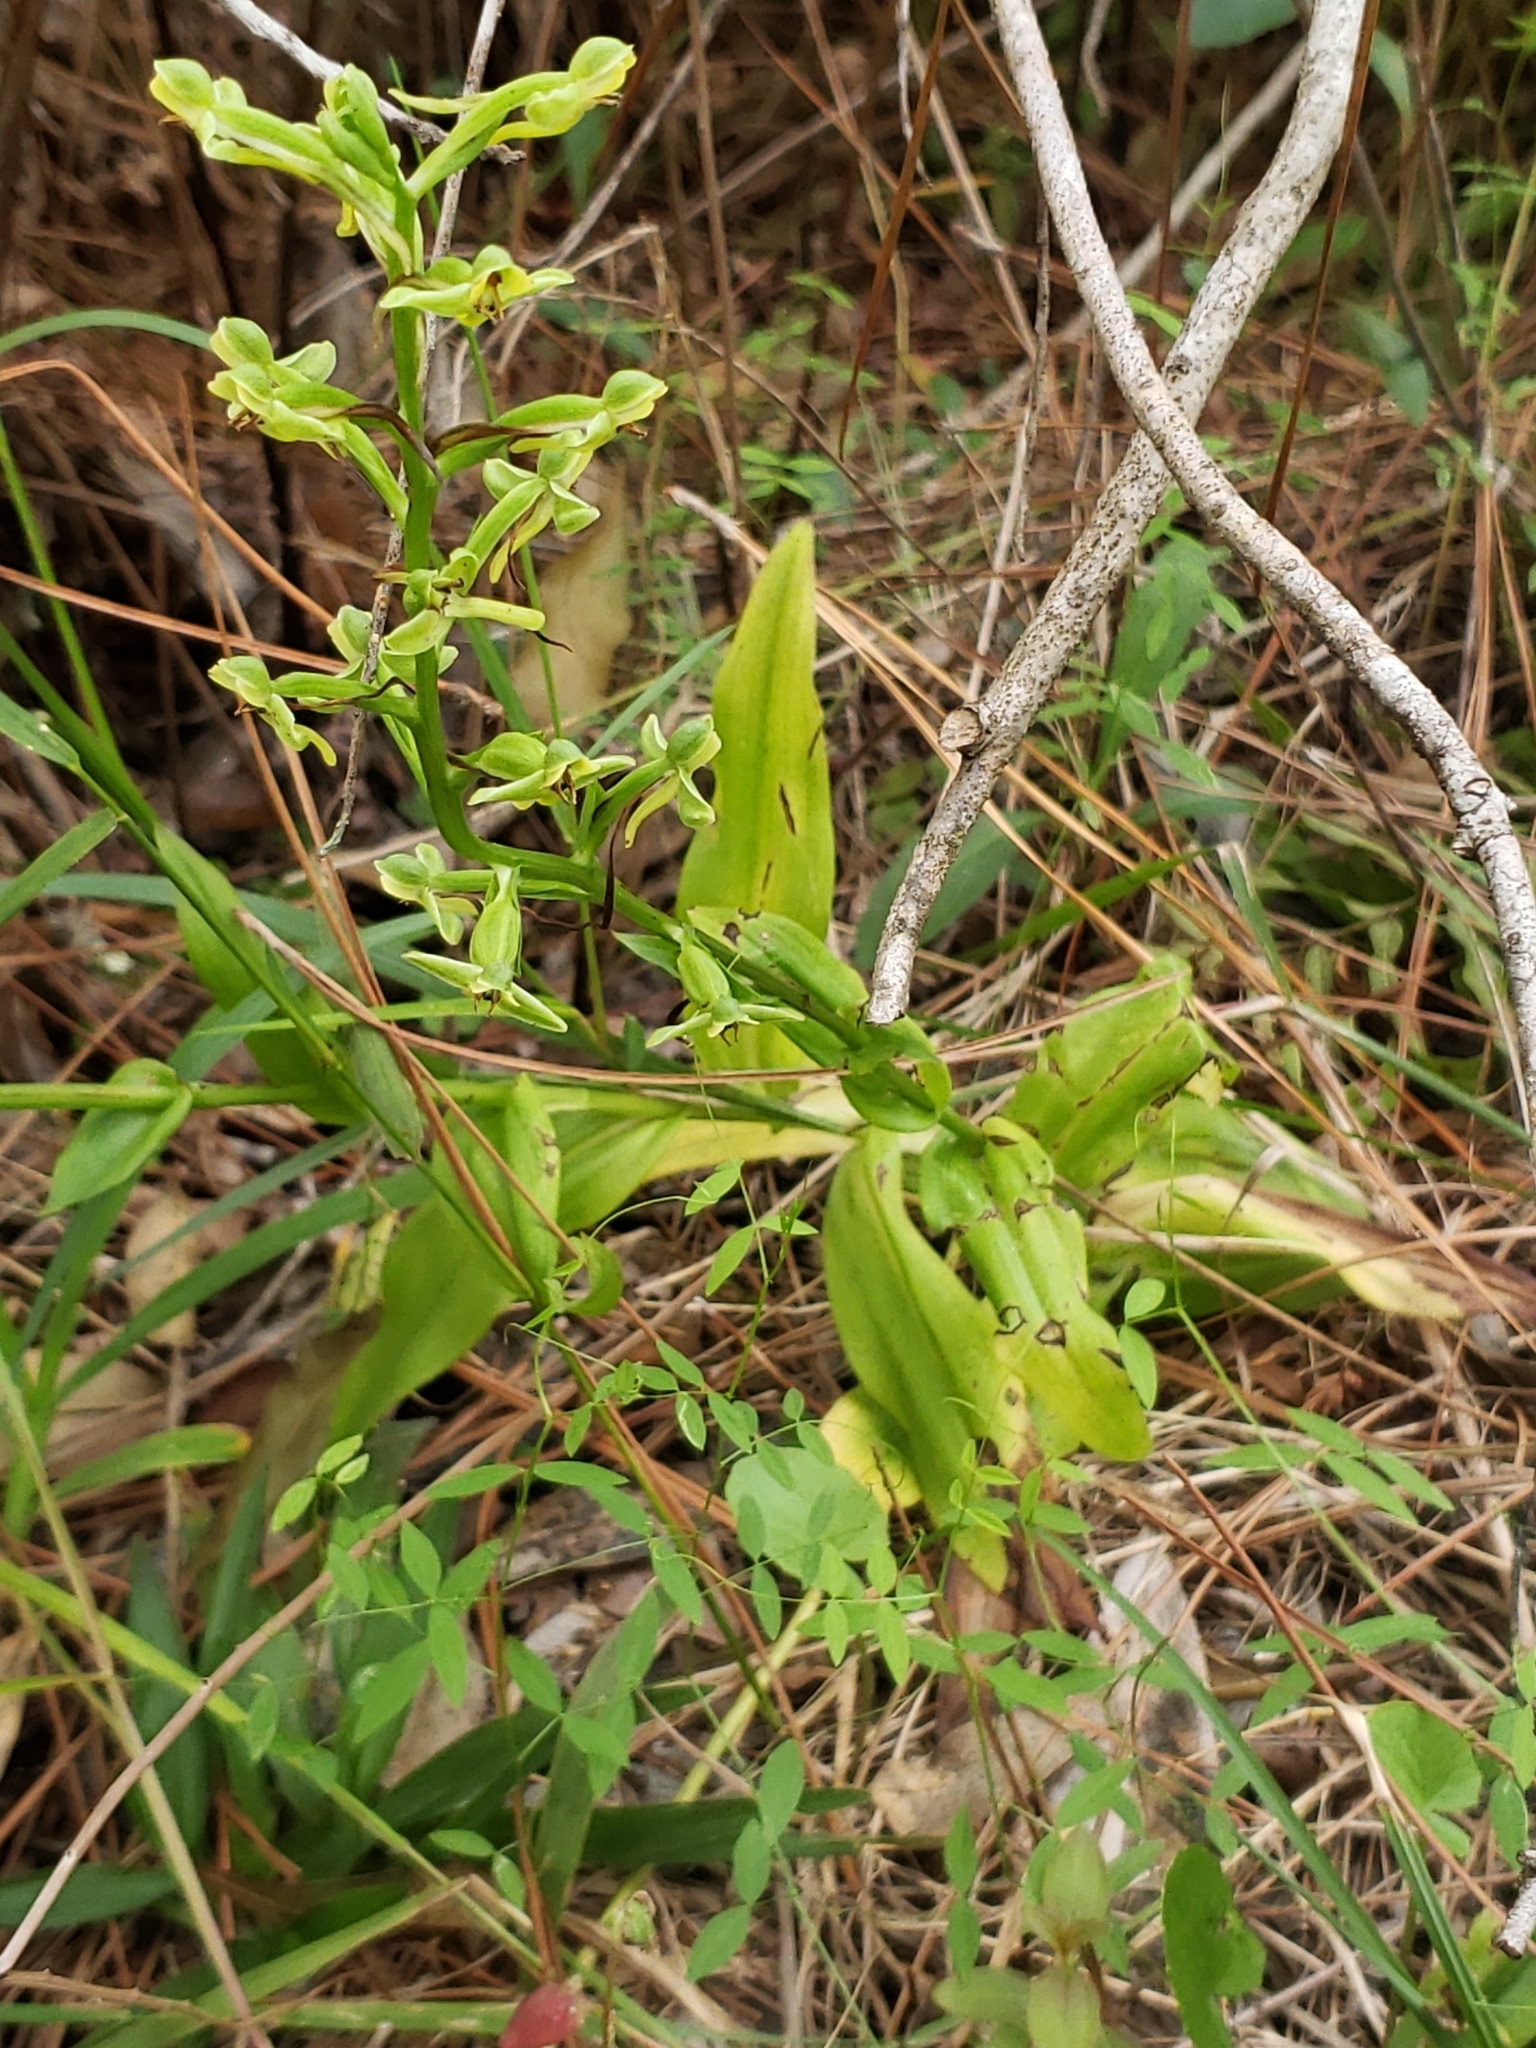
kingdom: Plantae
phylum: Tracheophyta
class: Liliopsida
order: Asparagales
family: Orchidaceae
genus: Habenaria
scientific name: Habenaria floribunda
